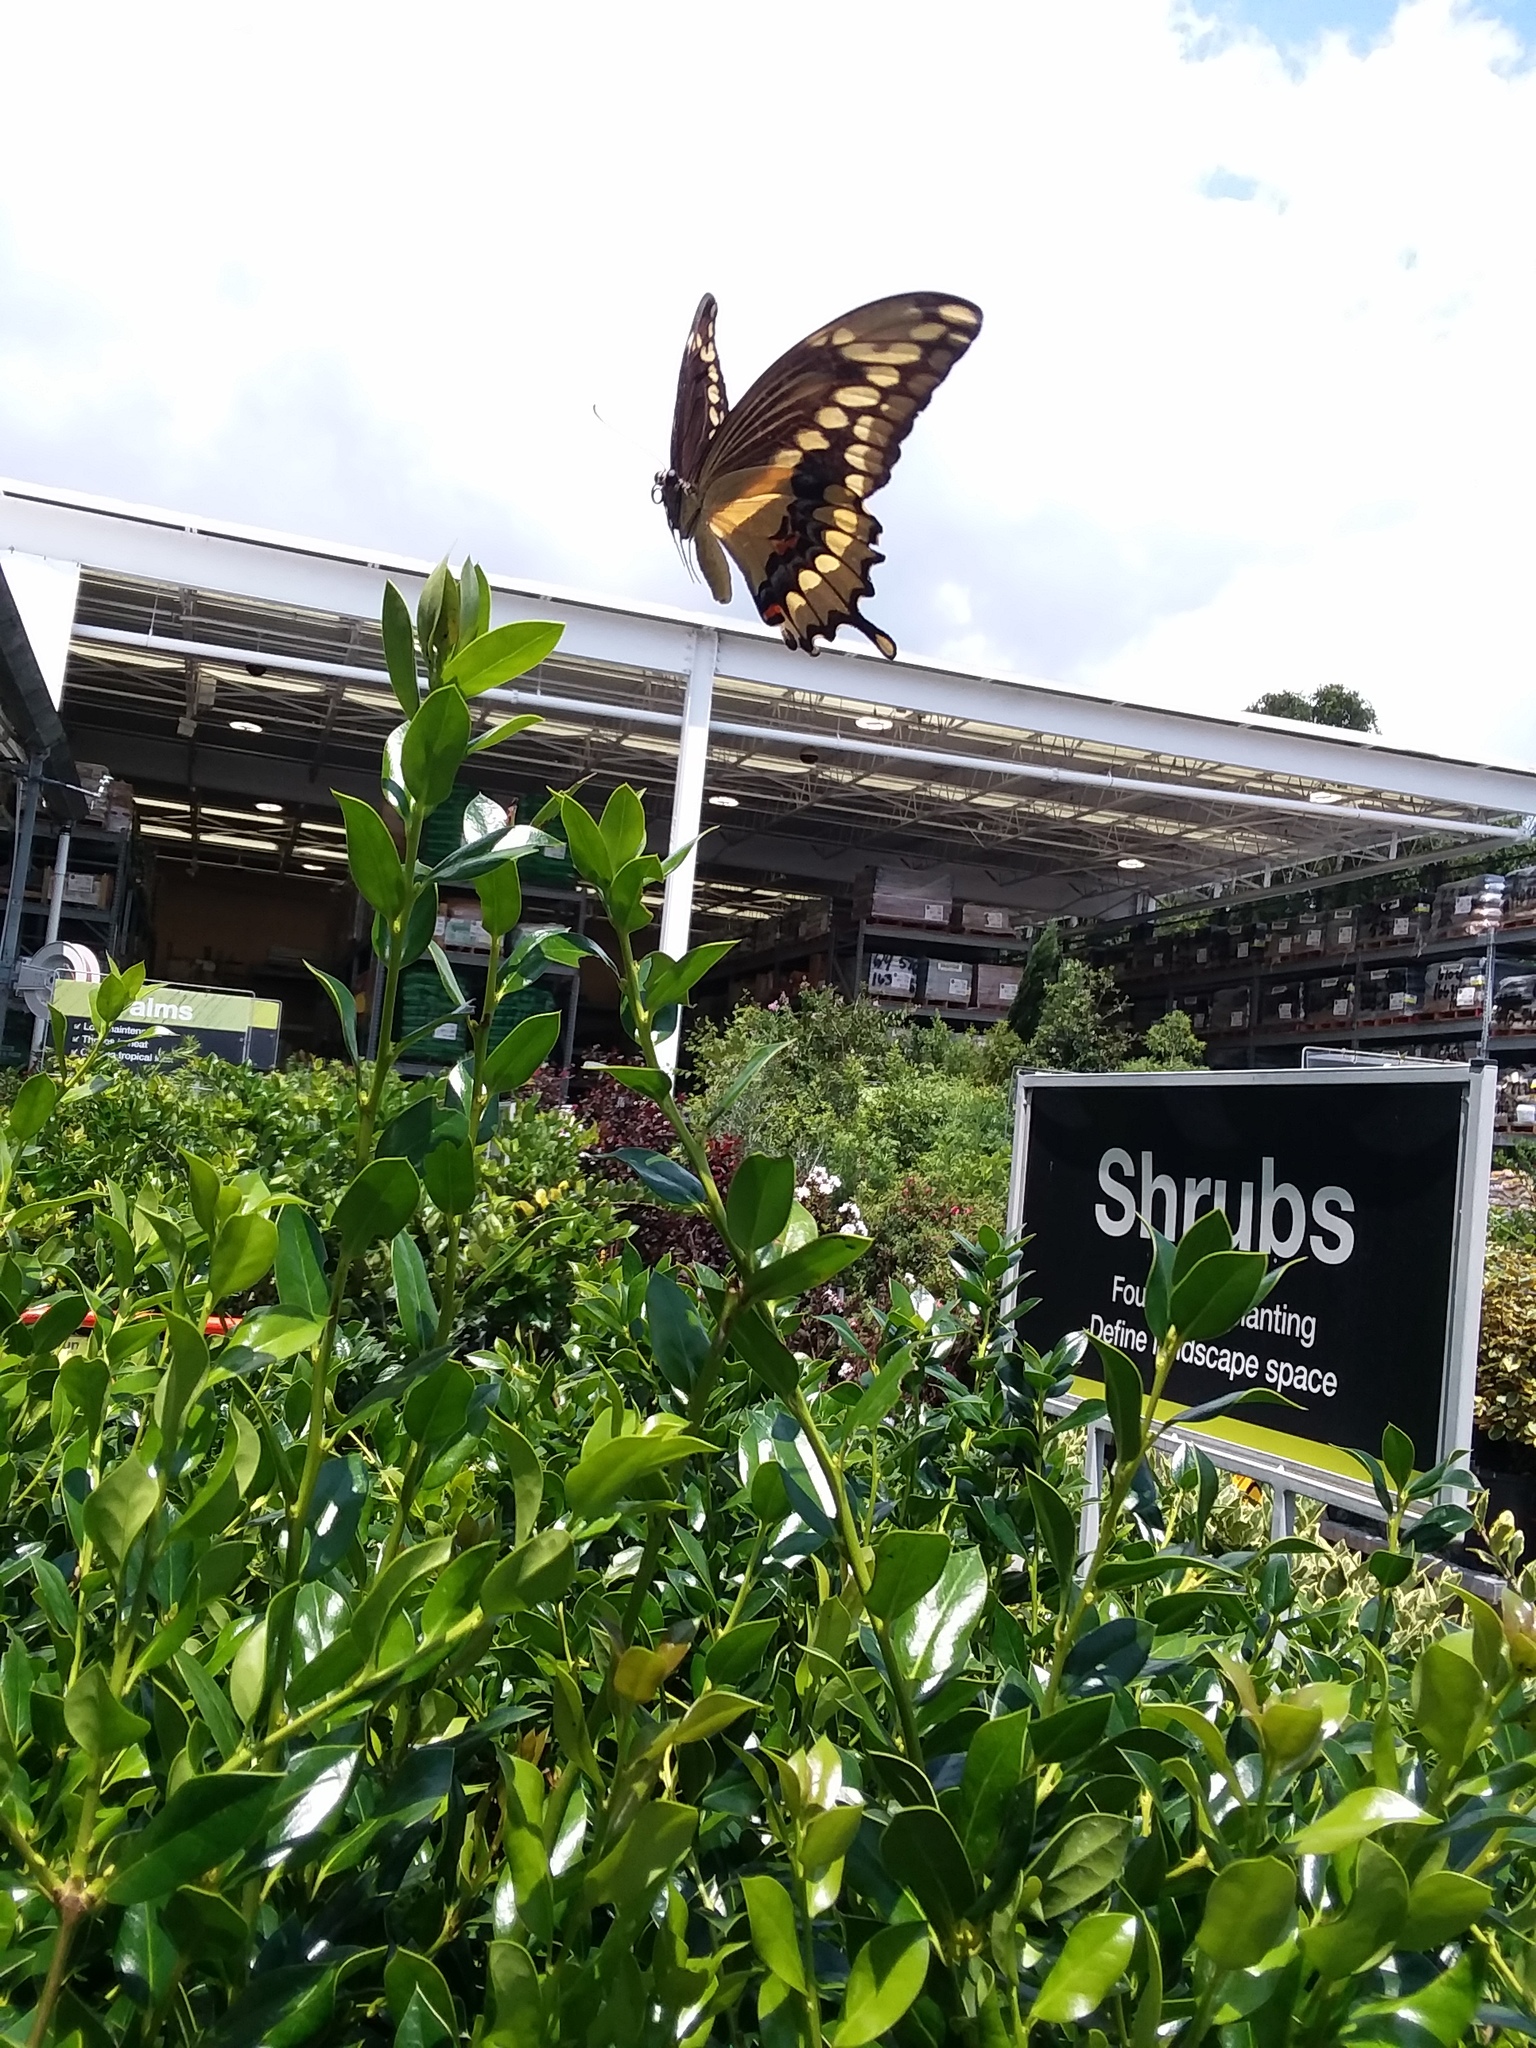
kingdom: Animalia
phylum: Arthropoda
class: Insecta
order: Lepidoptera
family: Papilionidae
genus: Papilio
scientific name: Papilio cresphontes
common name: Giant swallowtail
